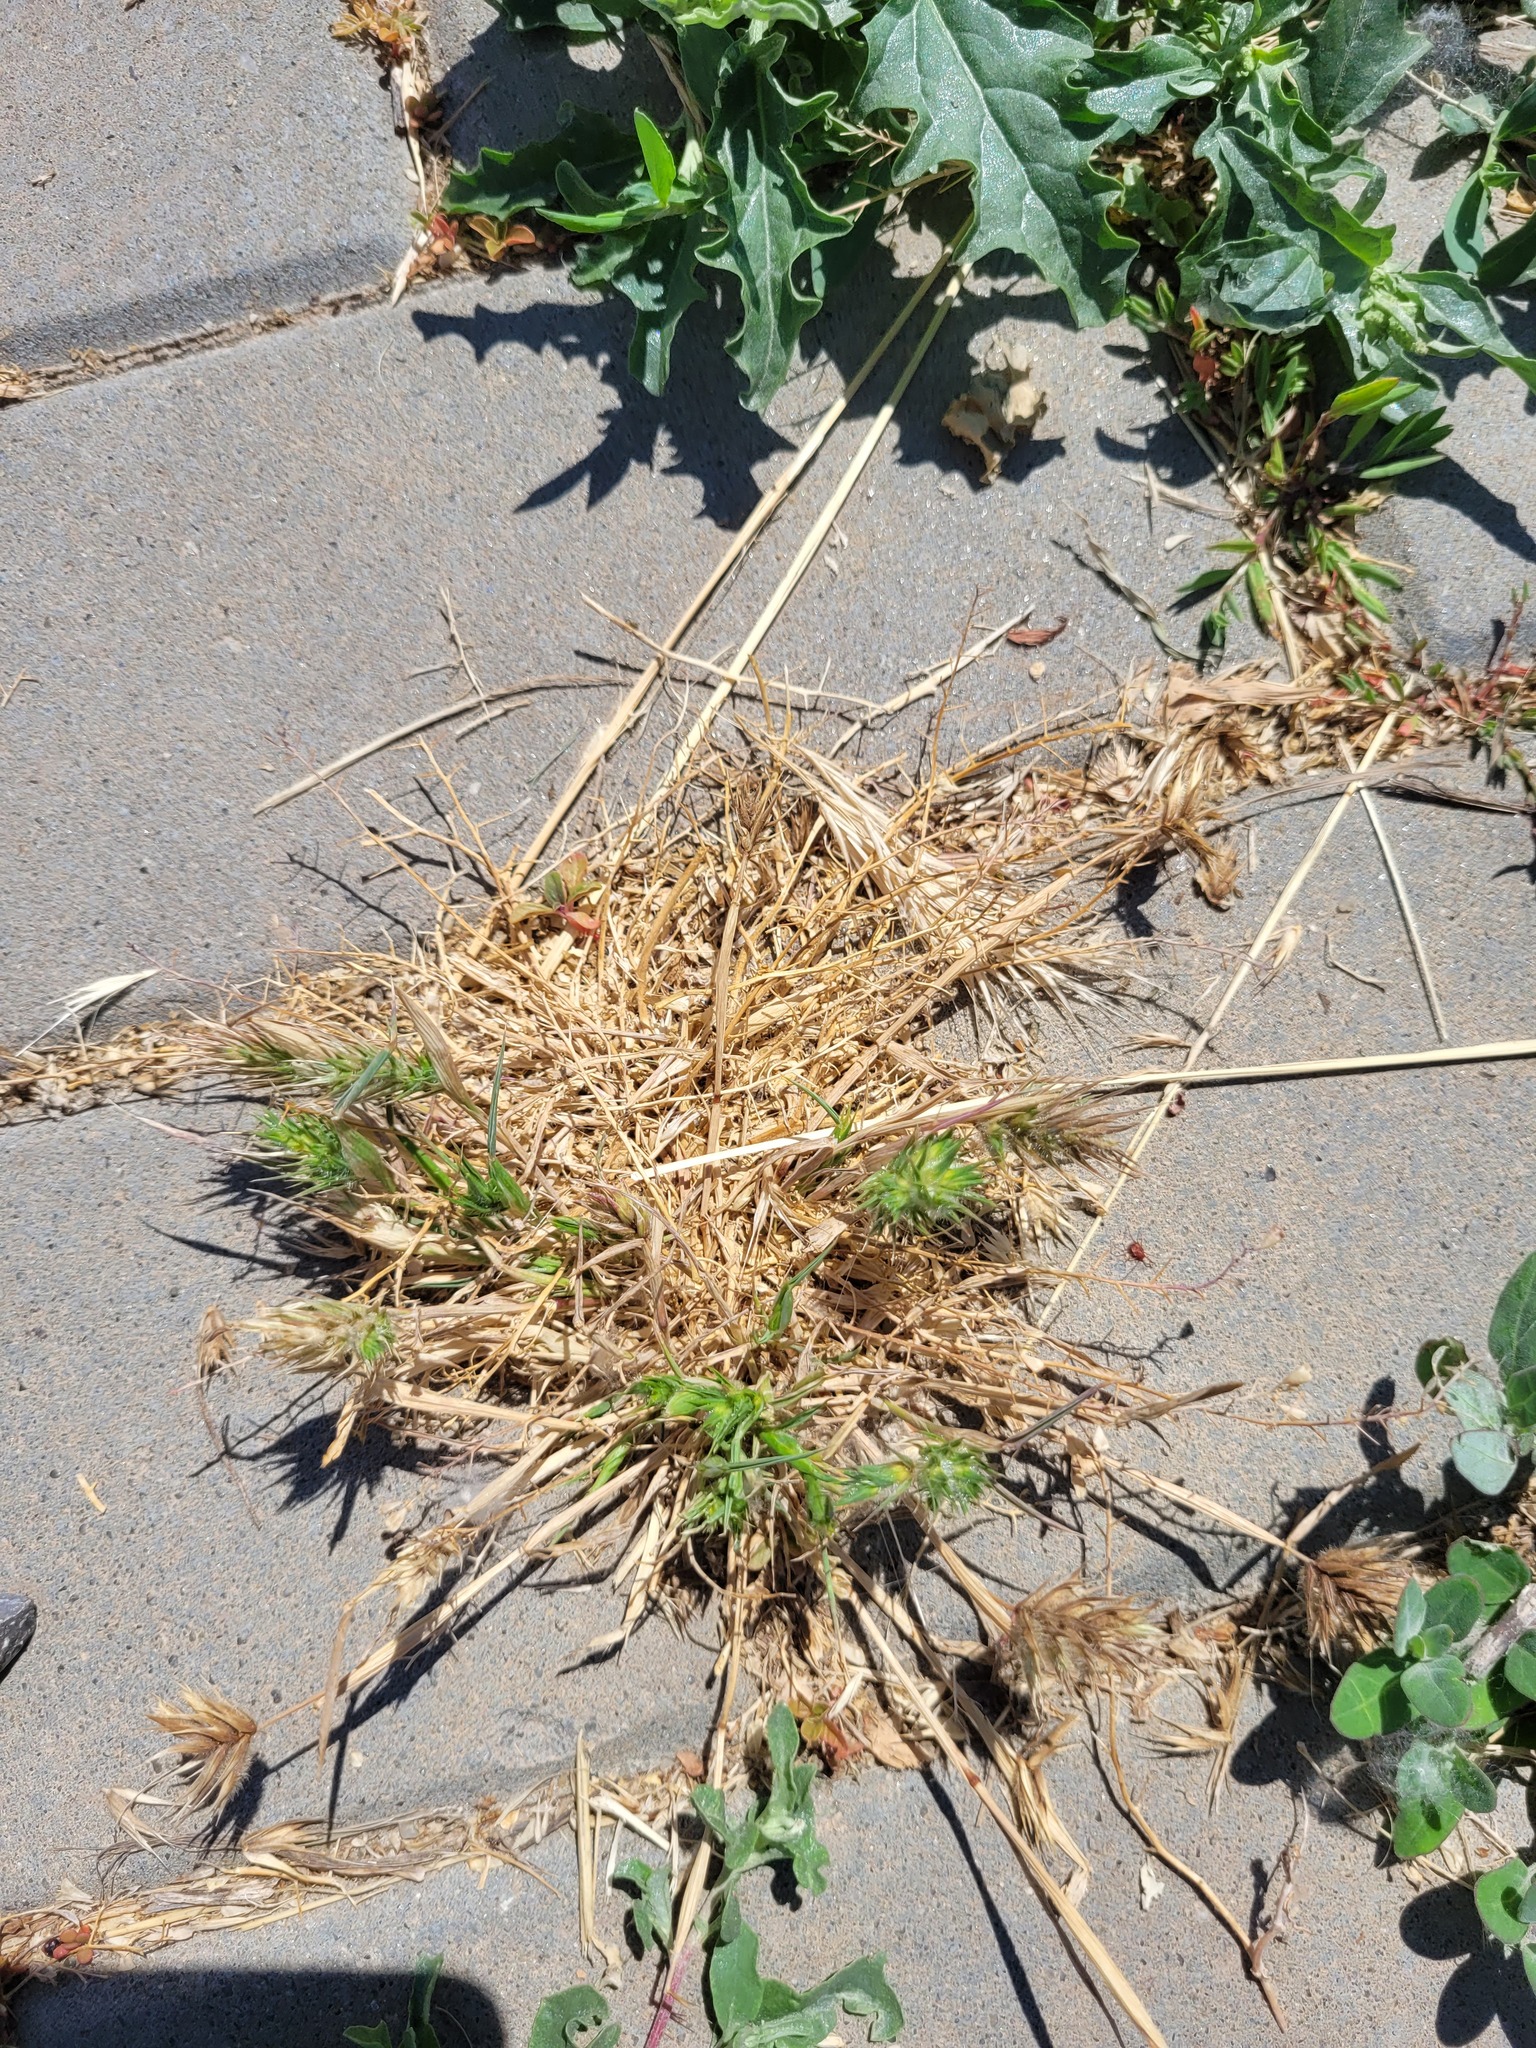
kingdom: Plantae
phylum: Tracheophyta
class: Liliopsida
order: Poales
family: Poaceae
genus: Eremopyrum
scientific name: Eremopyrum orientale
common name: Oriental false wheatgrass
